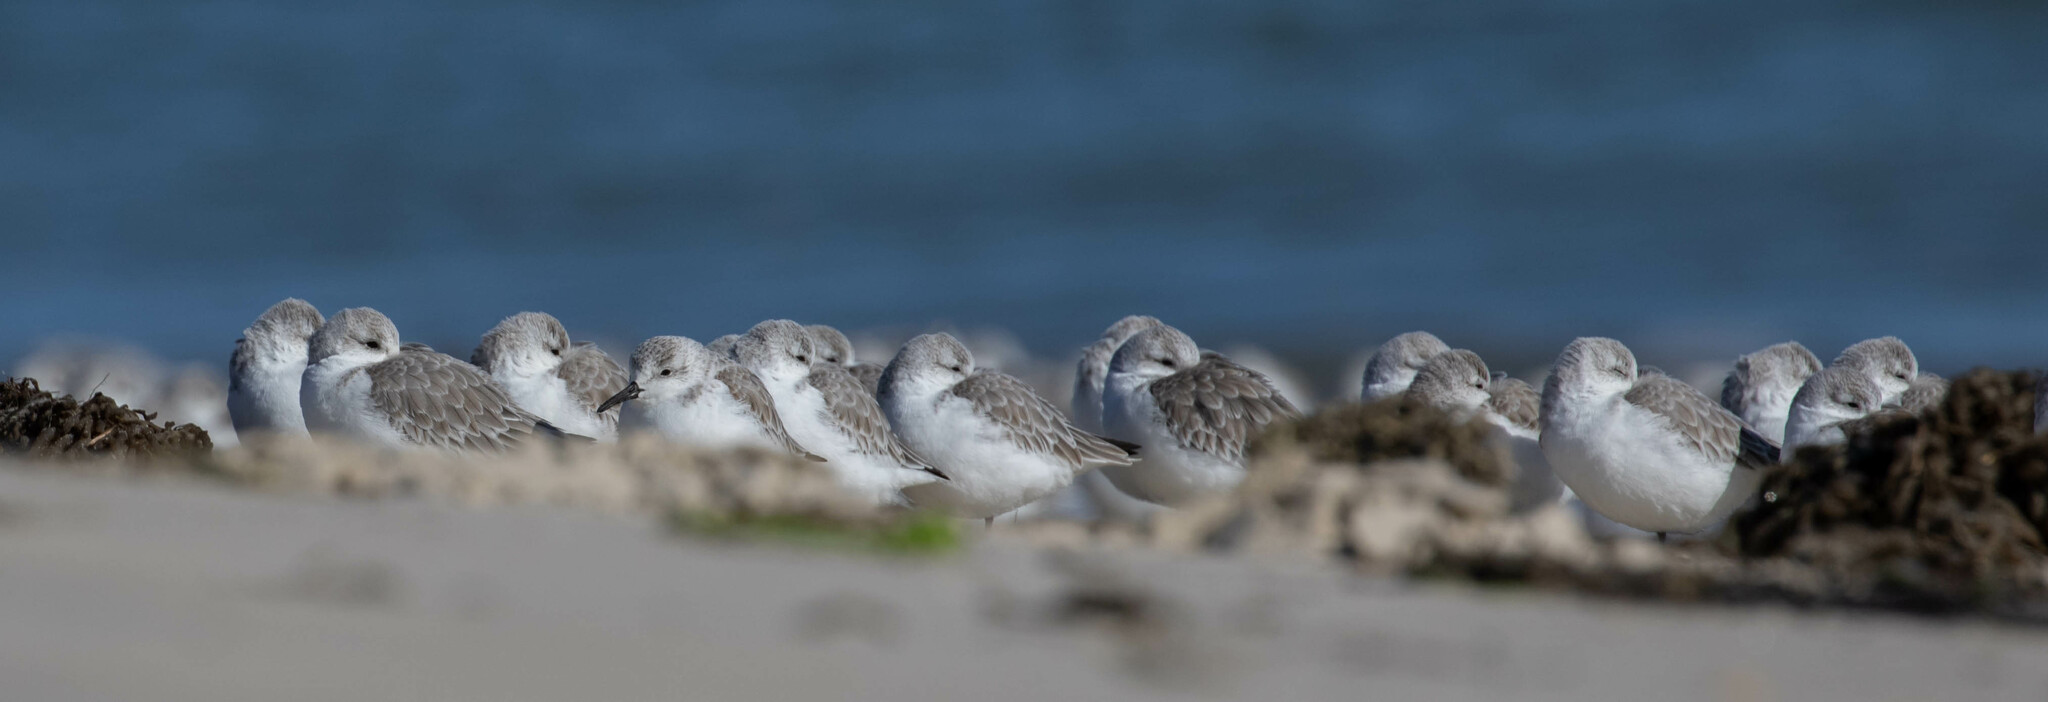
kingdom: Animalia
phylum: Chordata
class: Aves
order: Charadriiformes
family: Scolopacidae
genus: Calidris
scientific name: Calidris alba
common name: Sanderling
